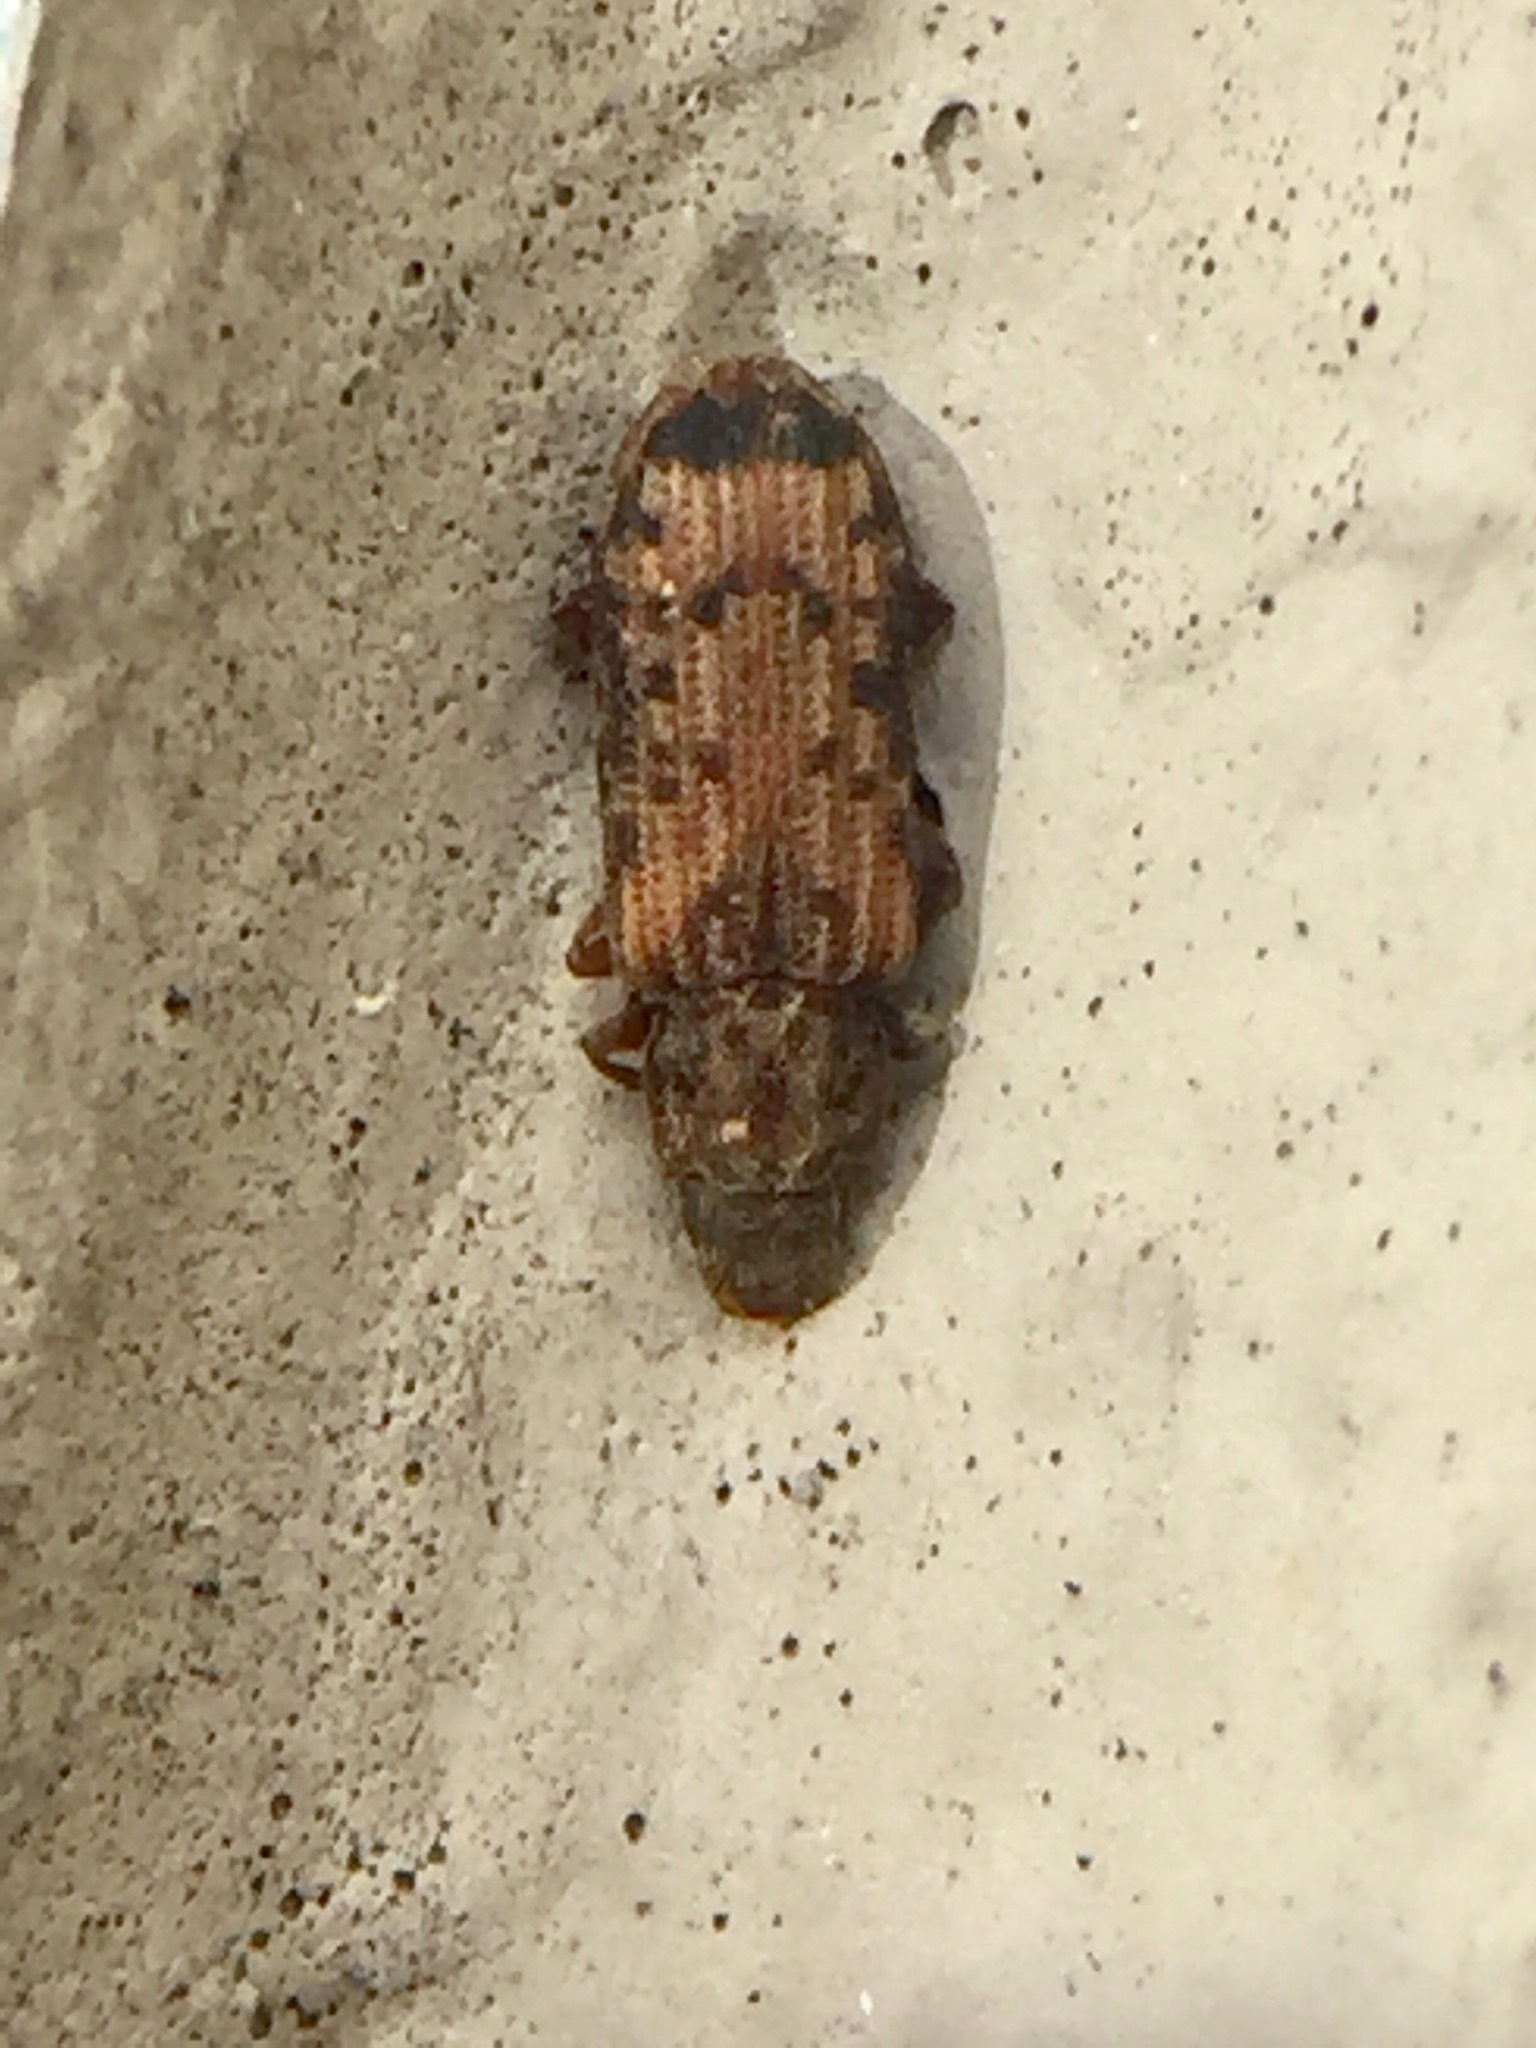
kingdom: Animalia
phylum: Arthropoda
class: Insecta
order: Coleoptera
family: Zopheridae
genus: Bitoma
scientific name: Bitoma
